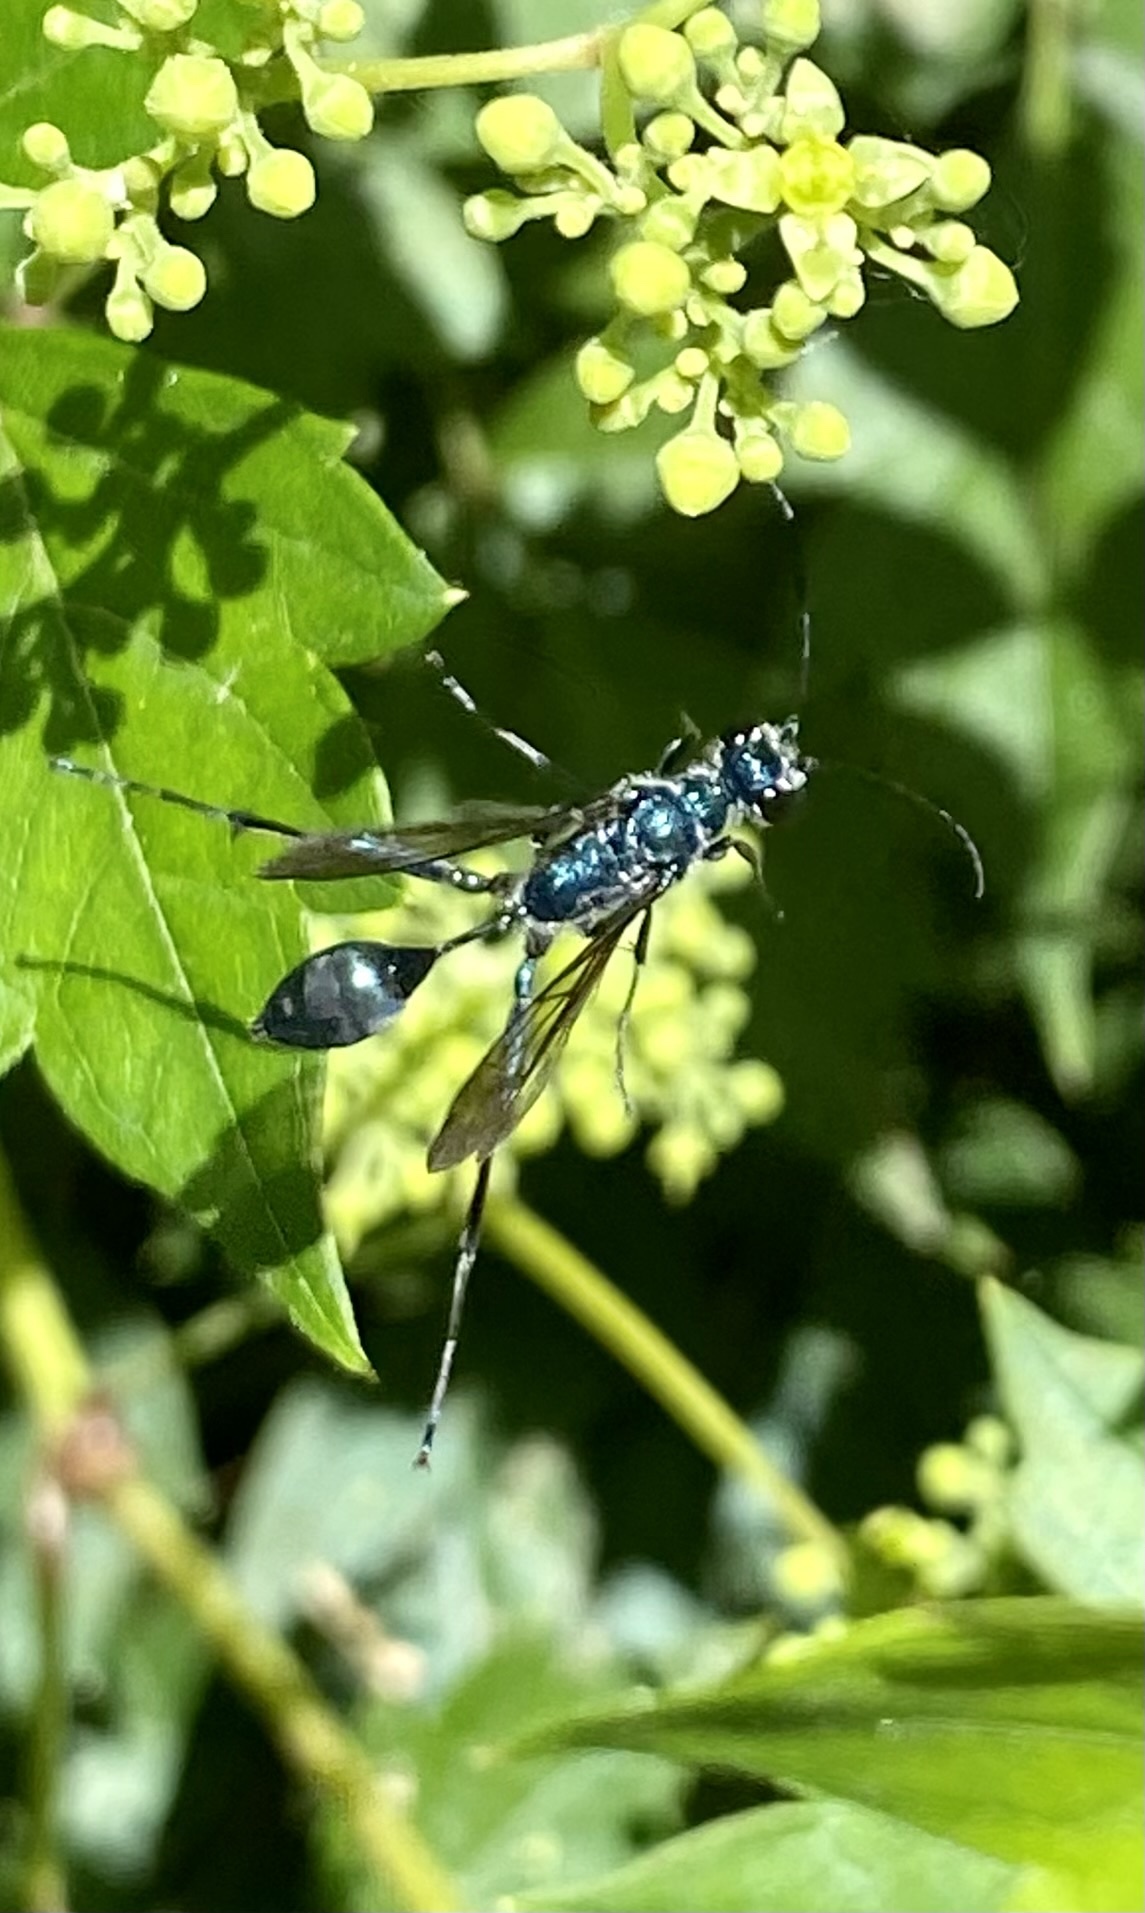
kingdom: Animalia
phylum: Arthropoda
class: Insecta
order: Hymenoptera
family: Sphecidae
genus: Chalybion
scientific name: Chalybion zimmermanni
